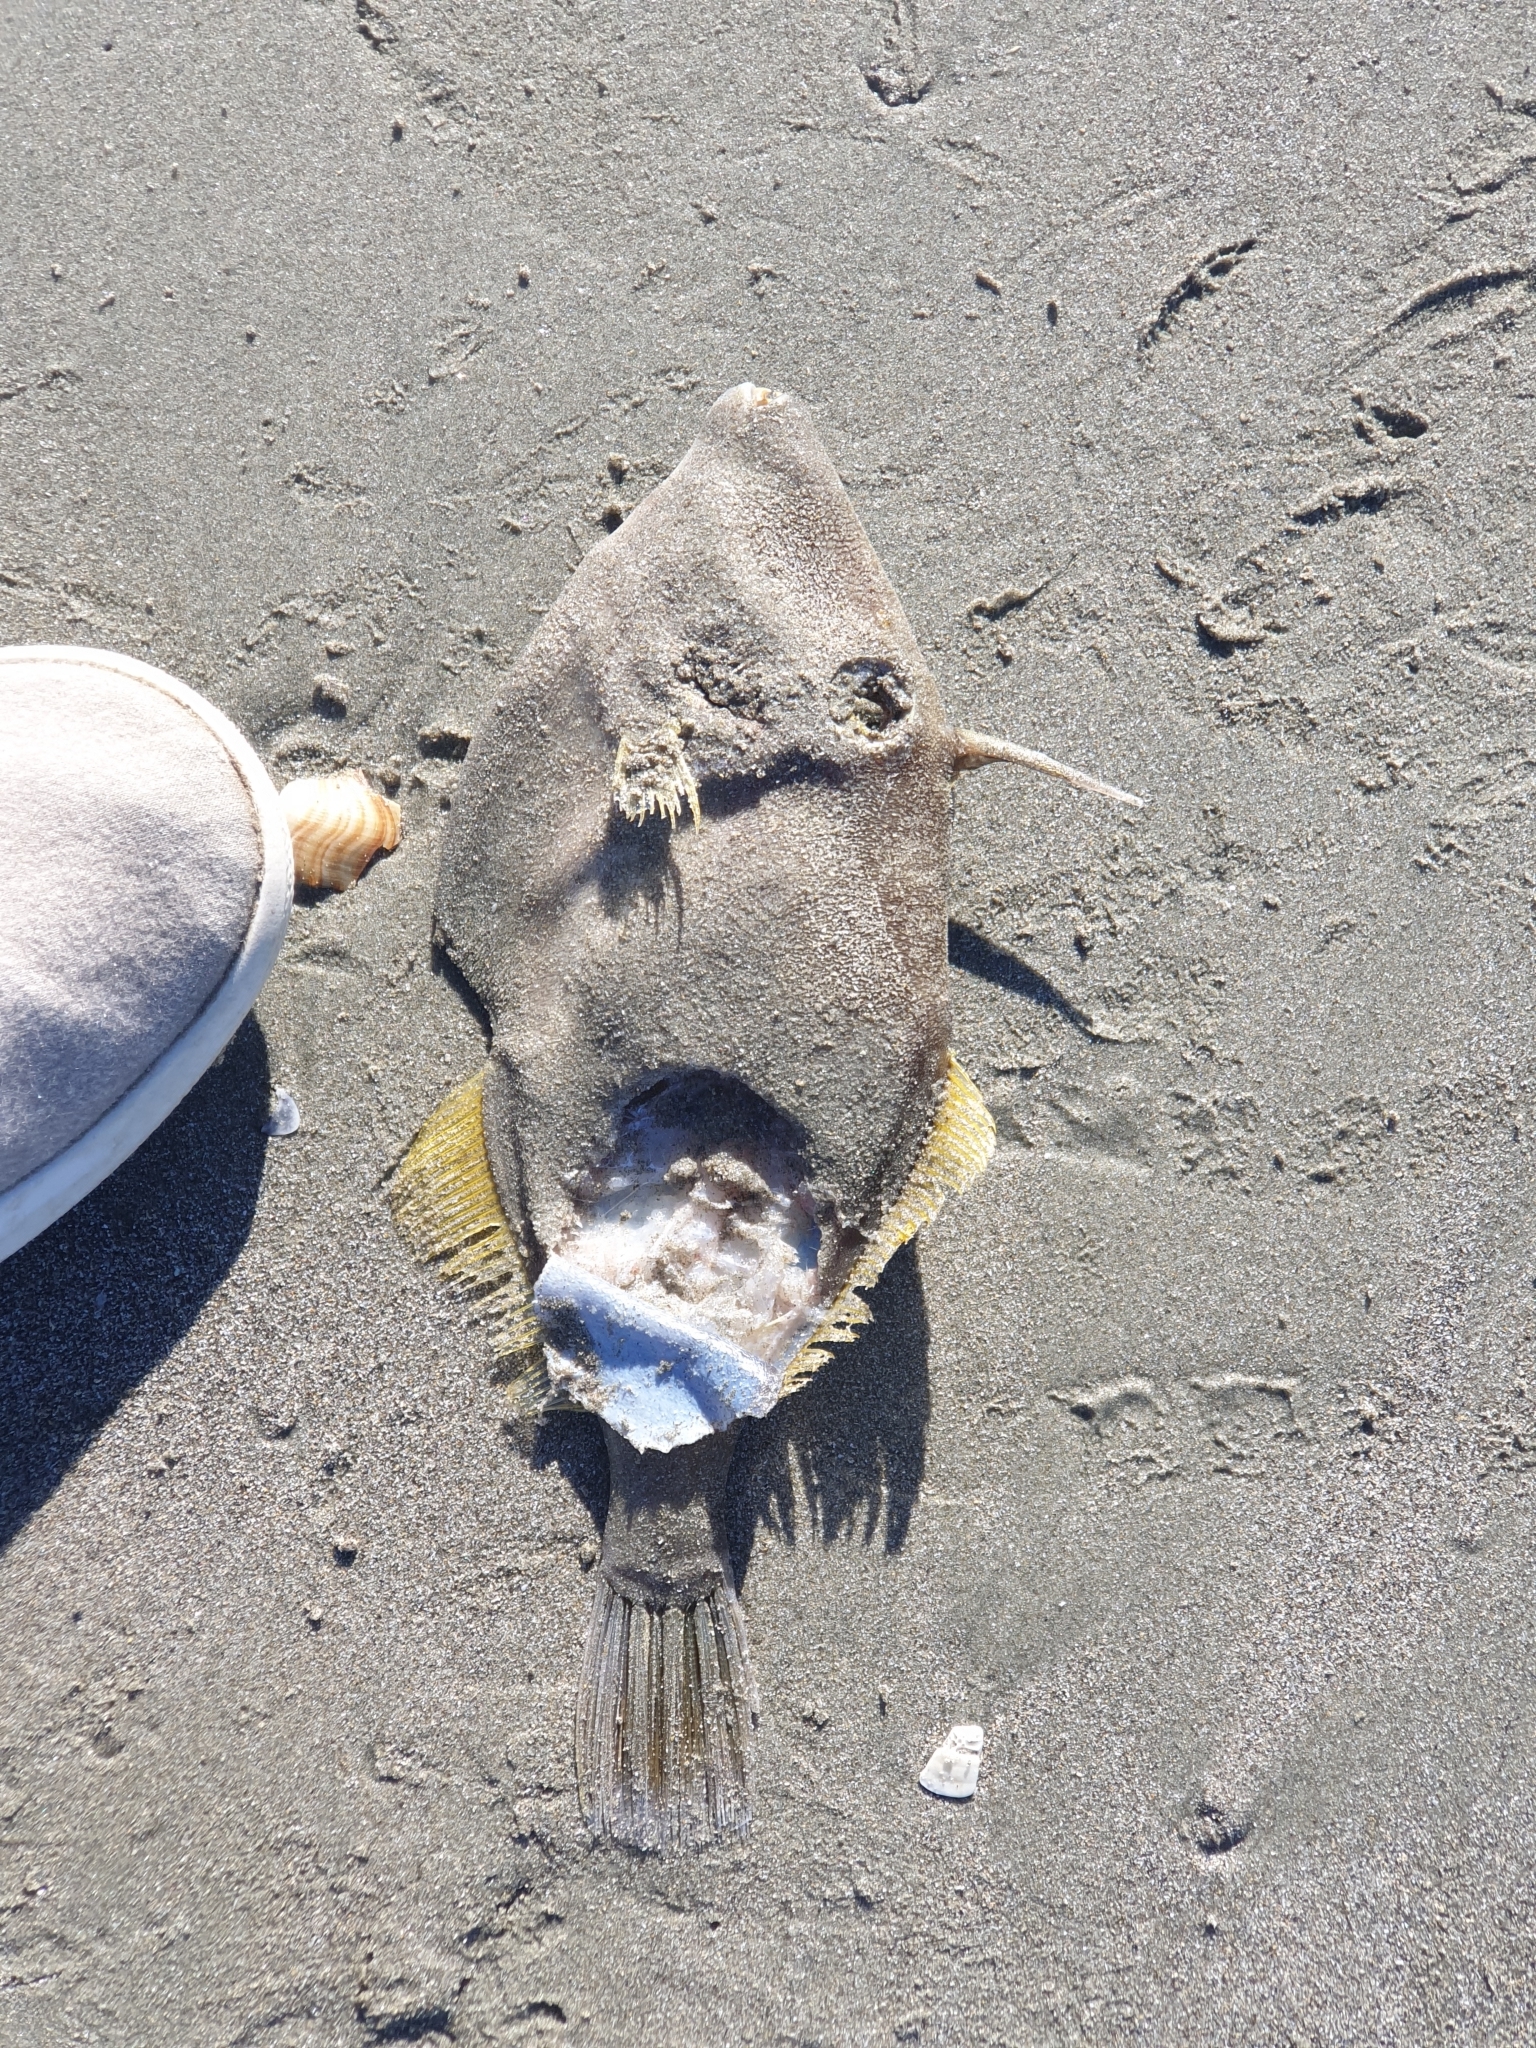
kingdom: Animalia
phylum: Chordata
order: Tetraodontiformes
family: Monacanthidae
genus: Meuschenia
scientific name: Meuschenia scaber
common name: Cosmopolitan leatherjacket
